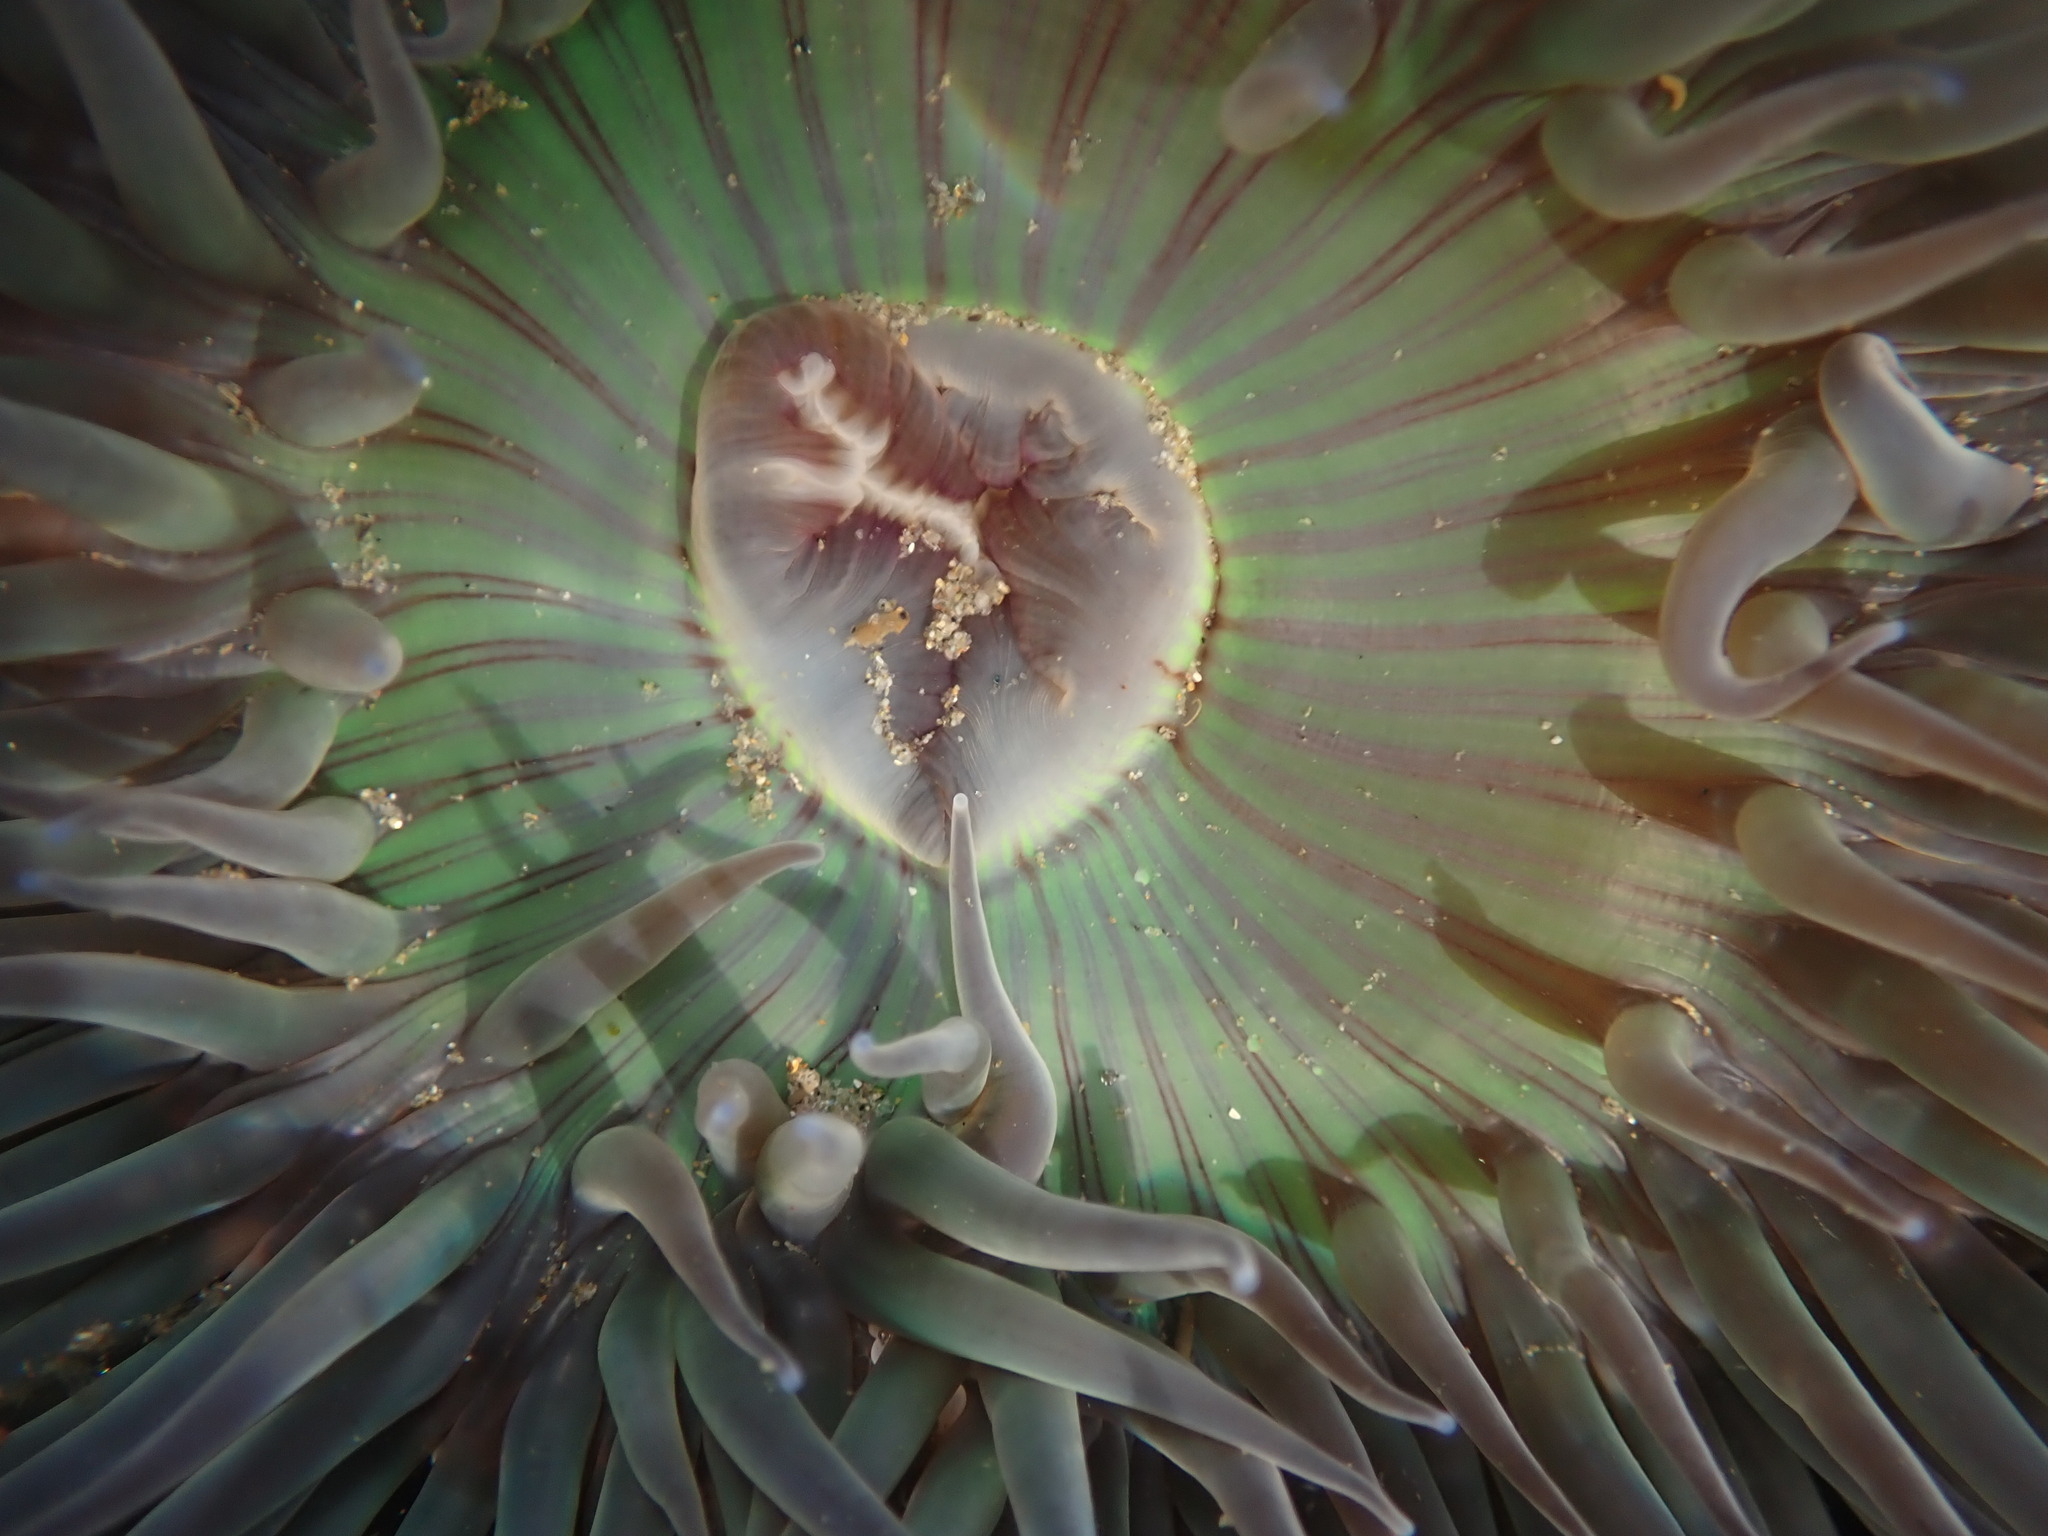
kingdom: Animalia
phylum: Cnidaria
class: Anthozoa
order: Actiniaria
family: Actiniidae
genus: Anthopleura
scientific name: Anthopleura sola
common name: Sun anemone
